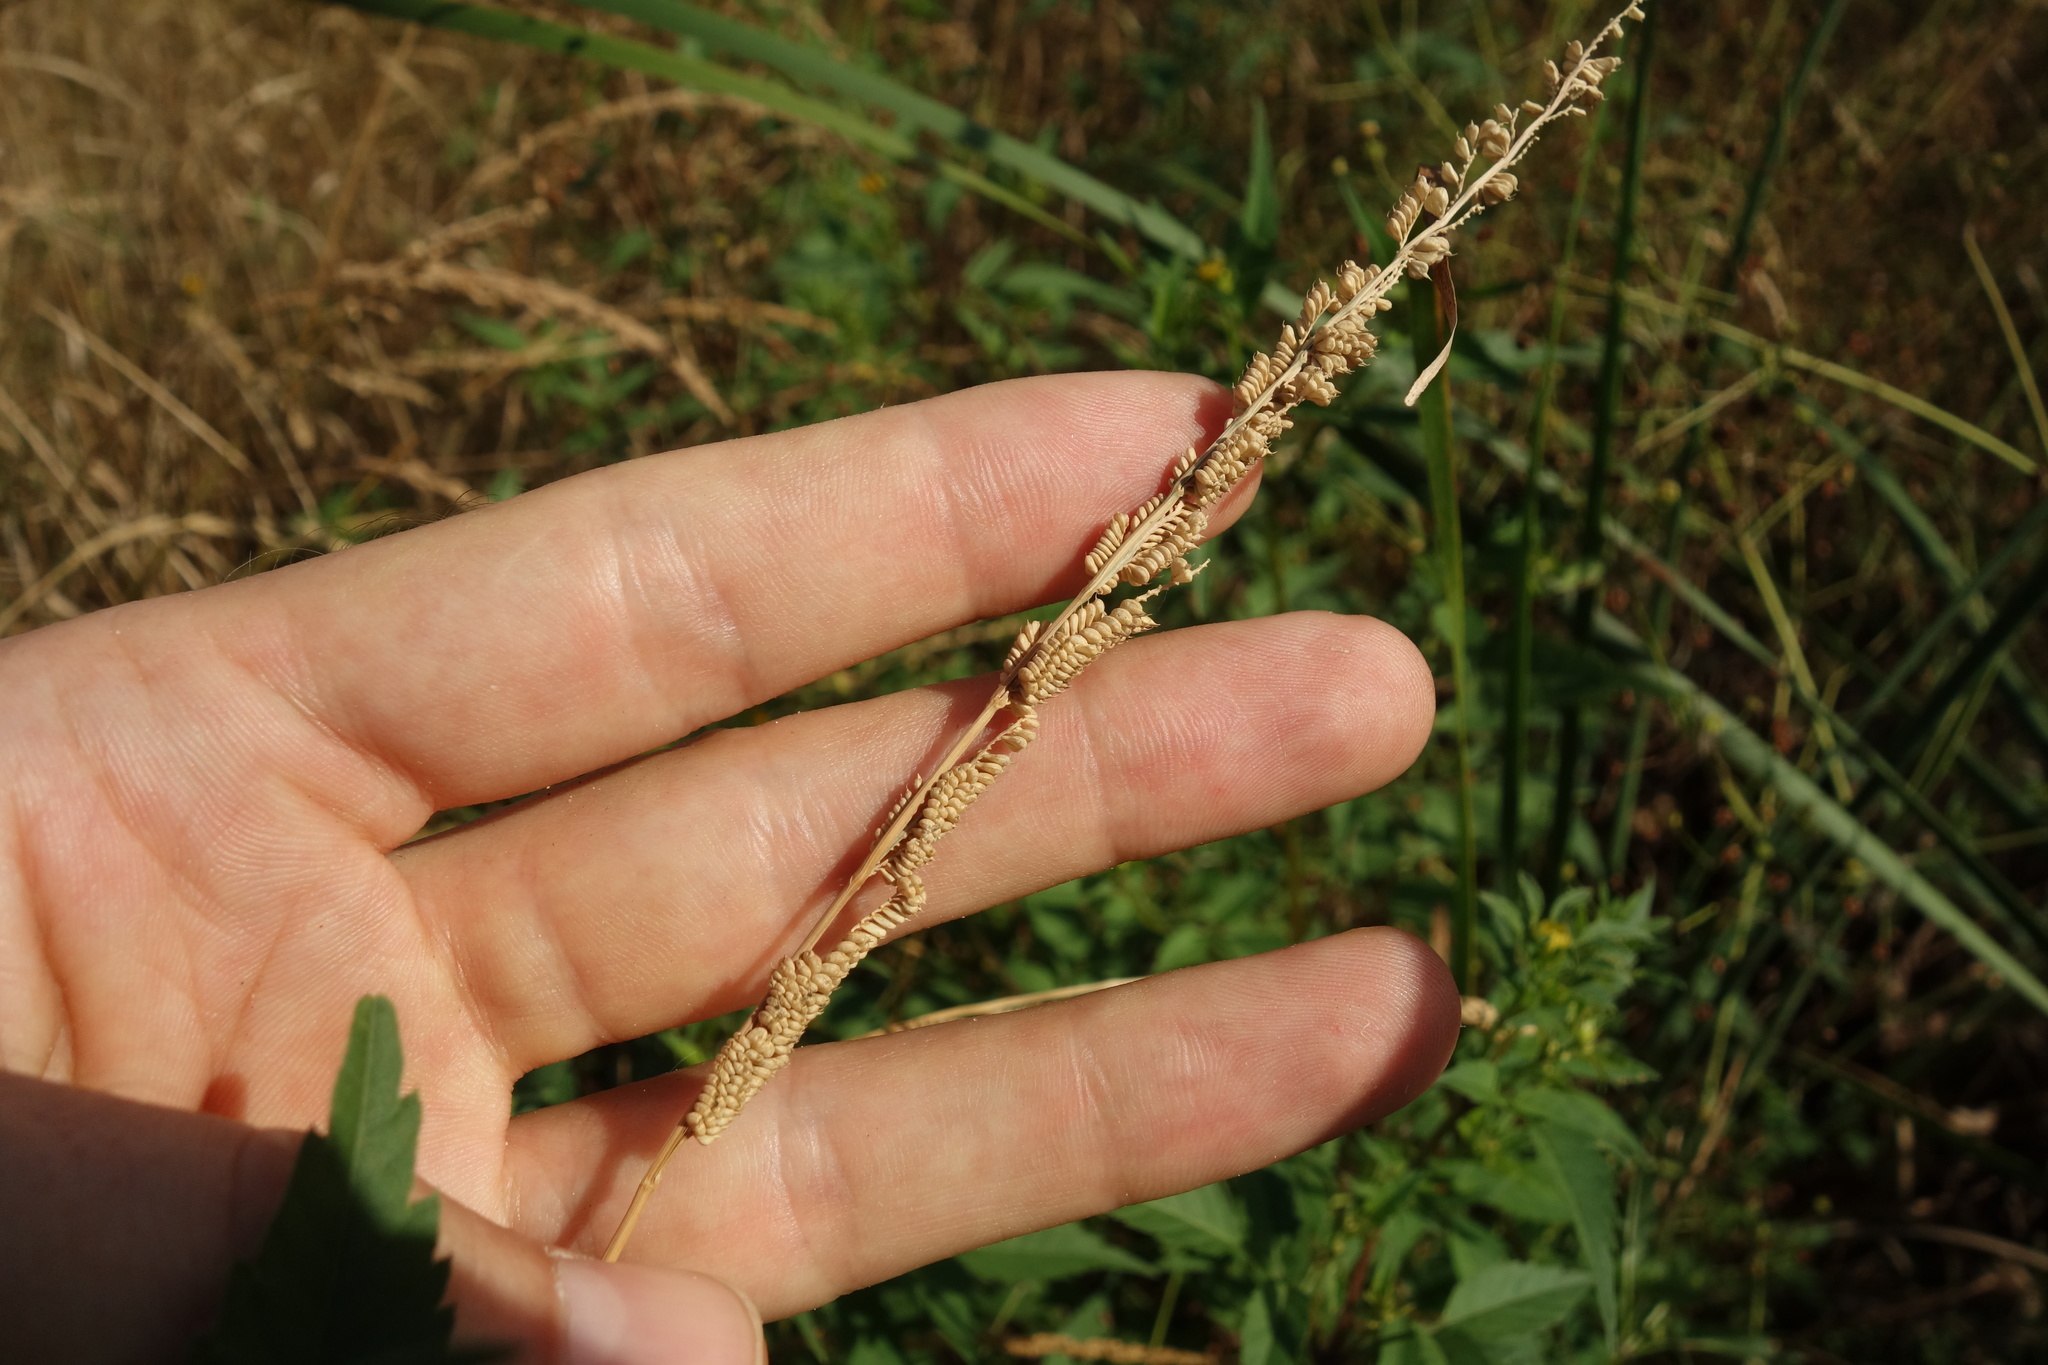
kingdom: Plantae
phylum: Tracheophyta
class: Liliopsida
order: Poales
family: Poaceae
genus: Beckmannia
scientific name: Beckmannia eruciformis
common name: European slough-grass
